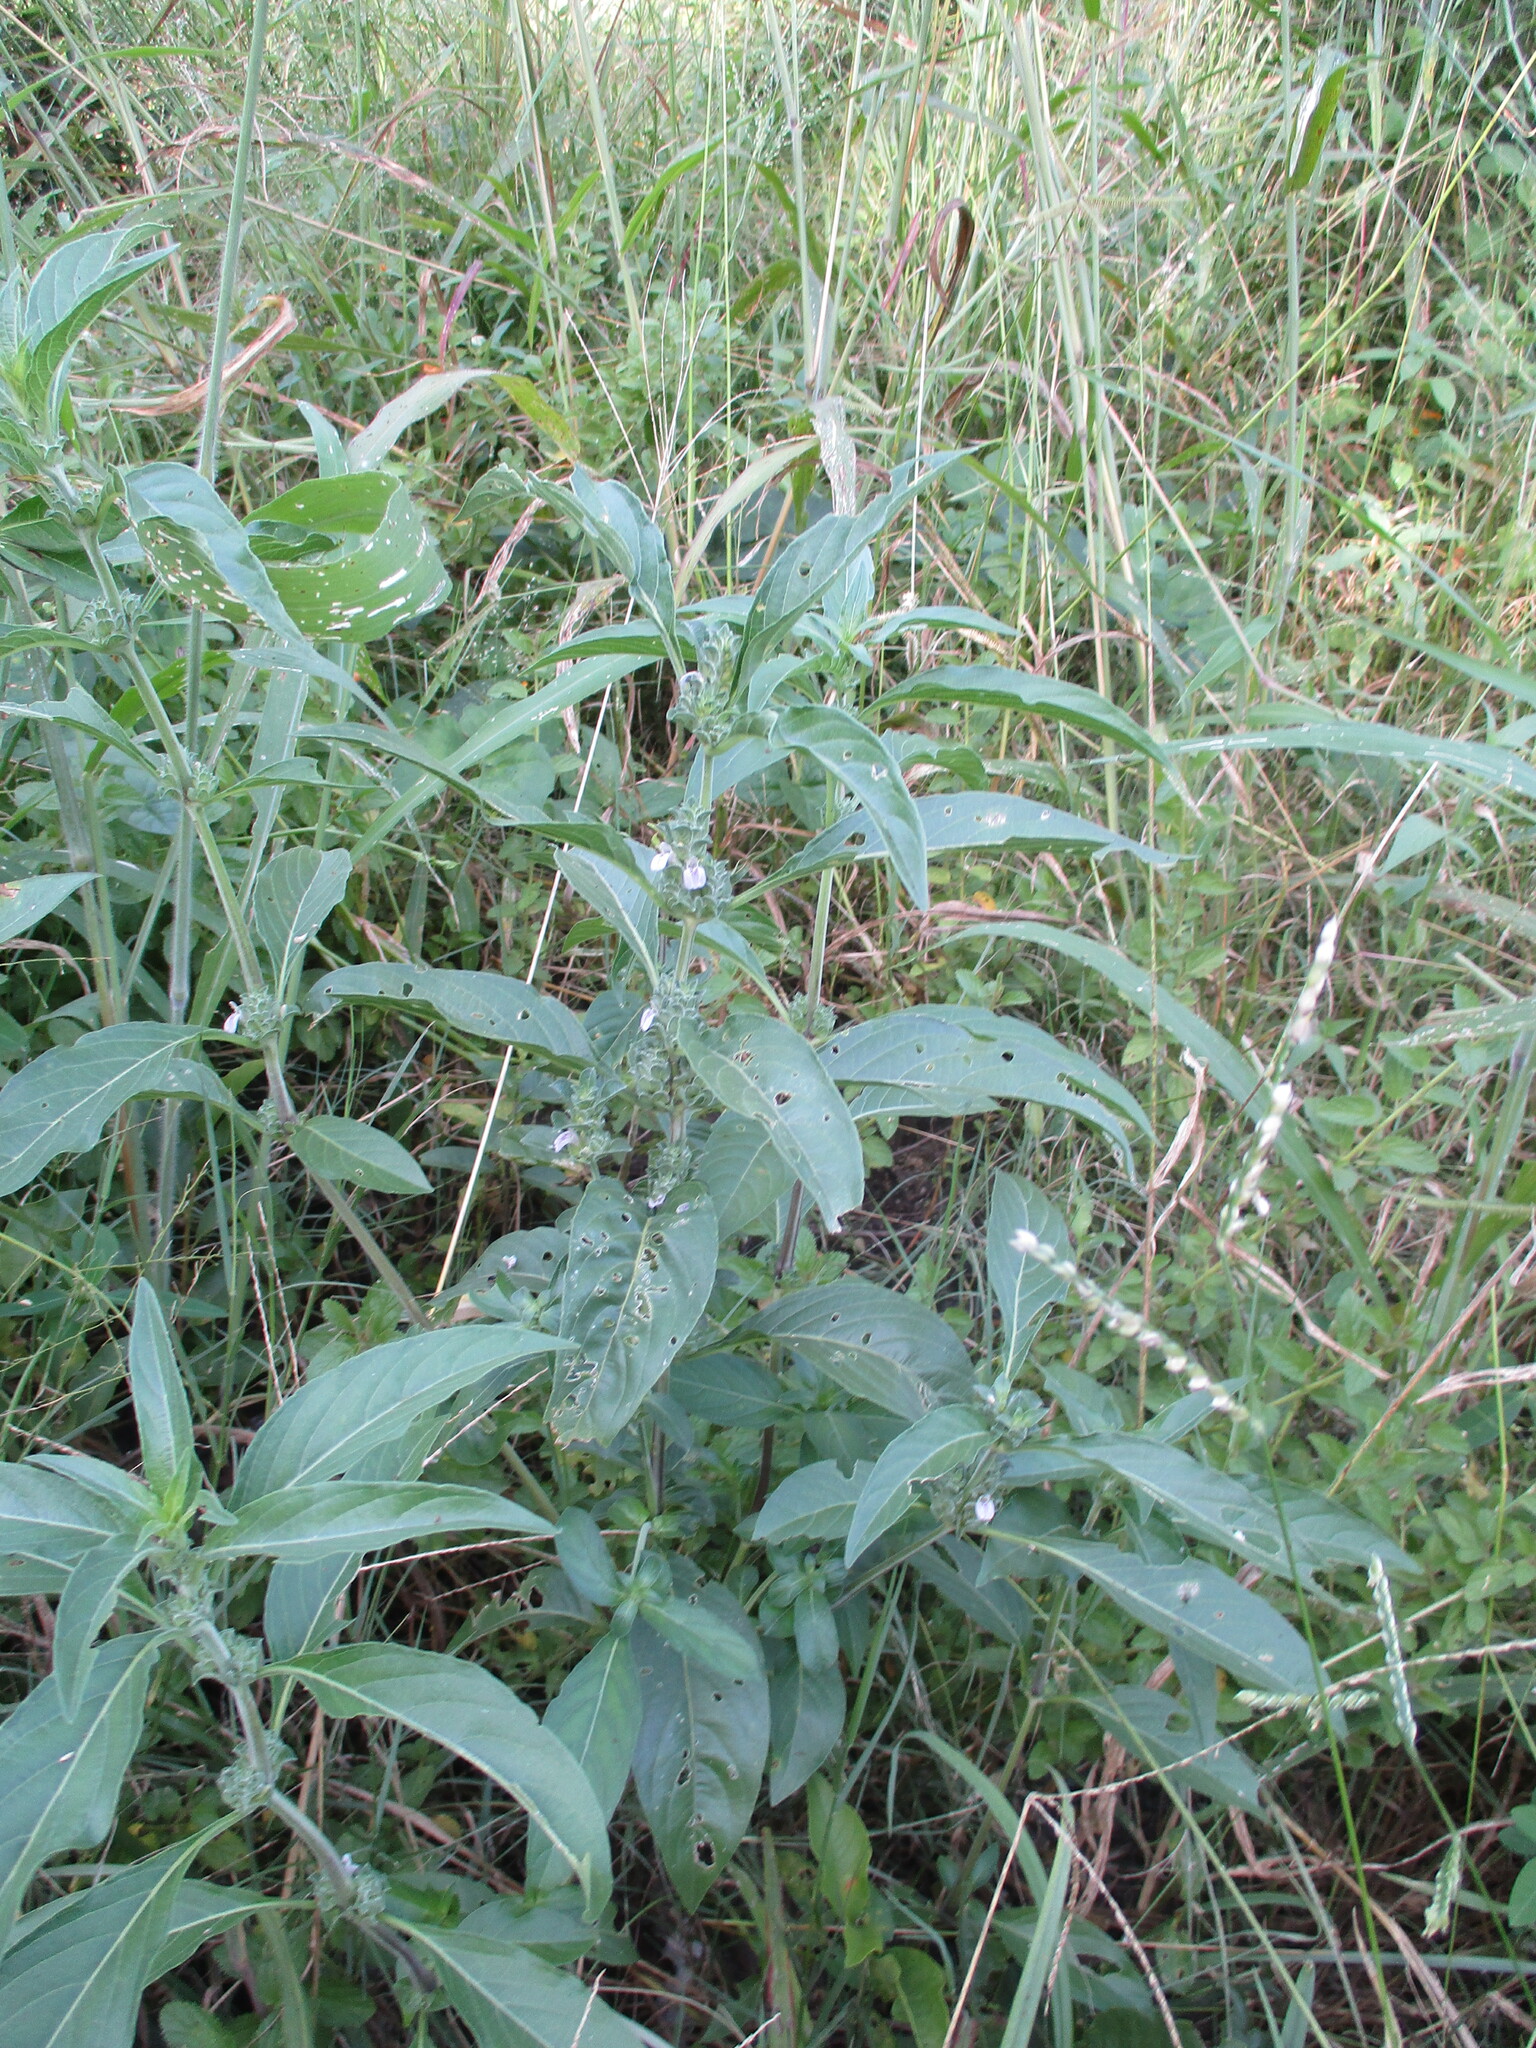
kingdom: Plantae
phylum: Tracheophyta
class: Magnoliopsida
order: Lamiales
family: Acanthaceae
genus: Monechma
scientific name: Monechma
